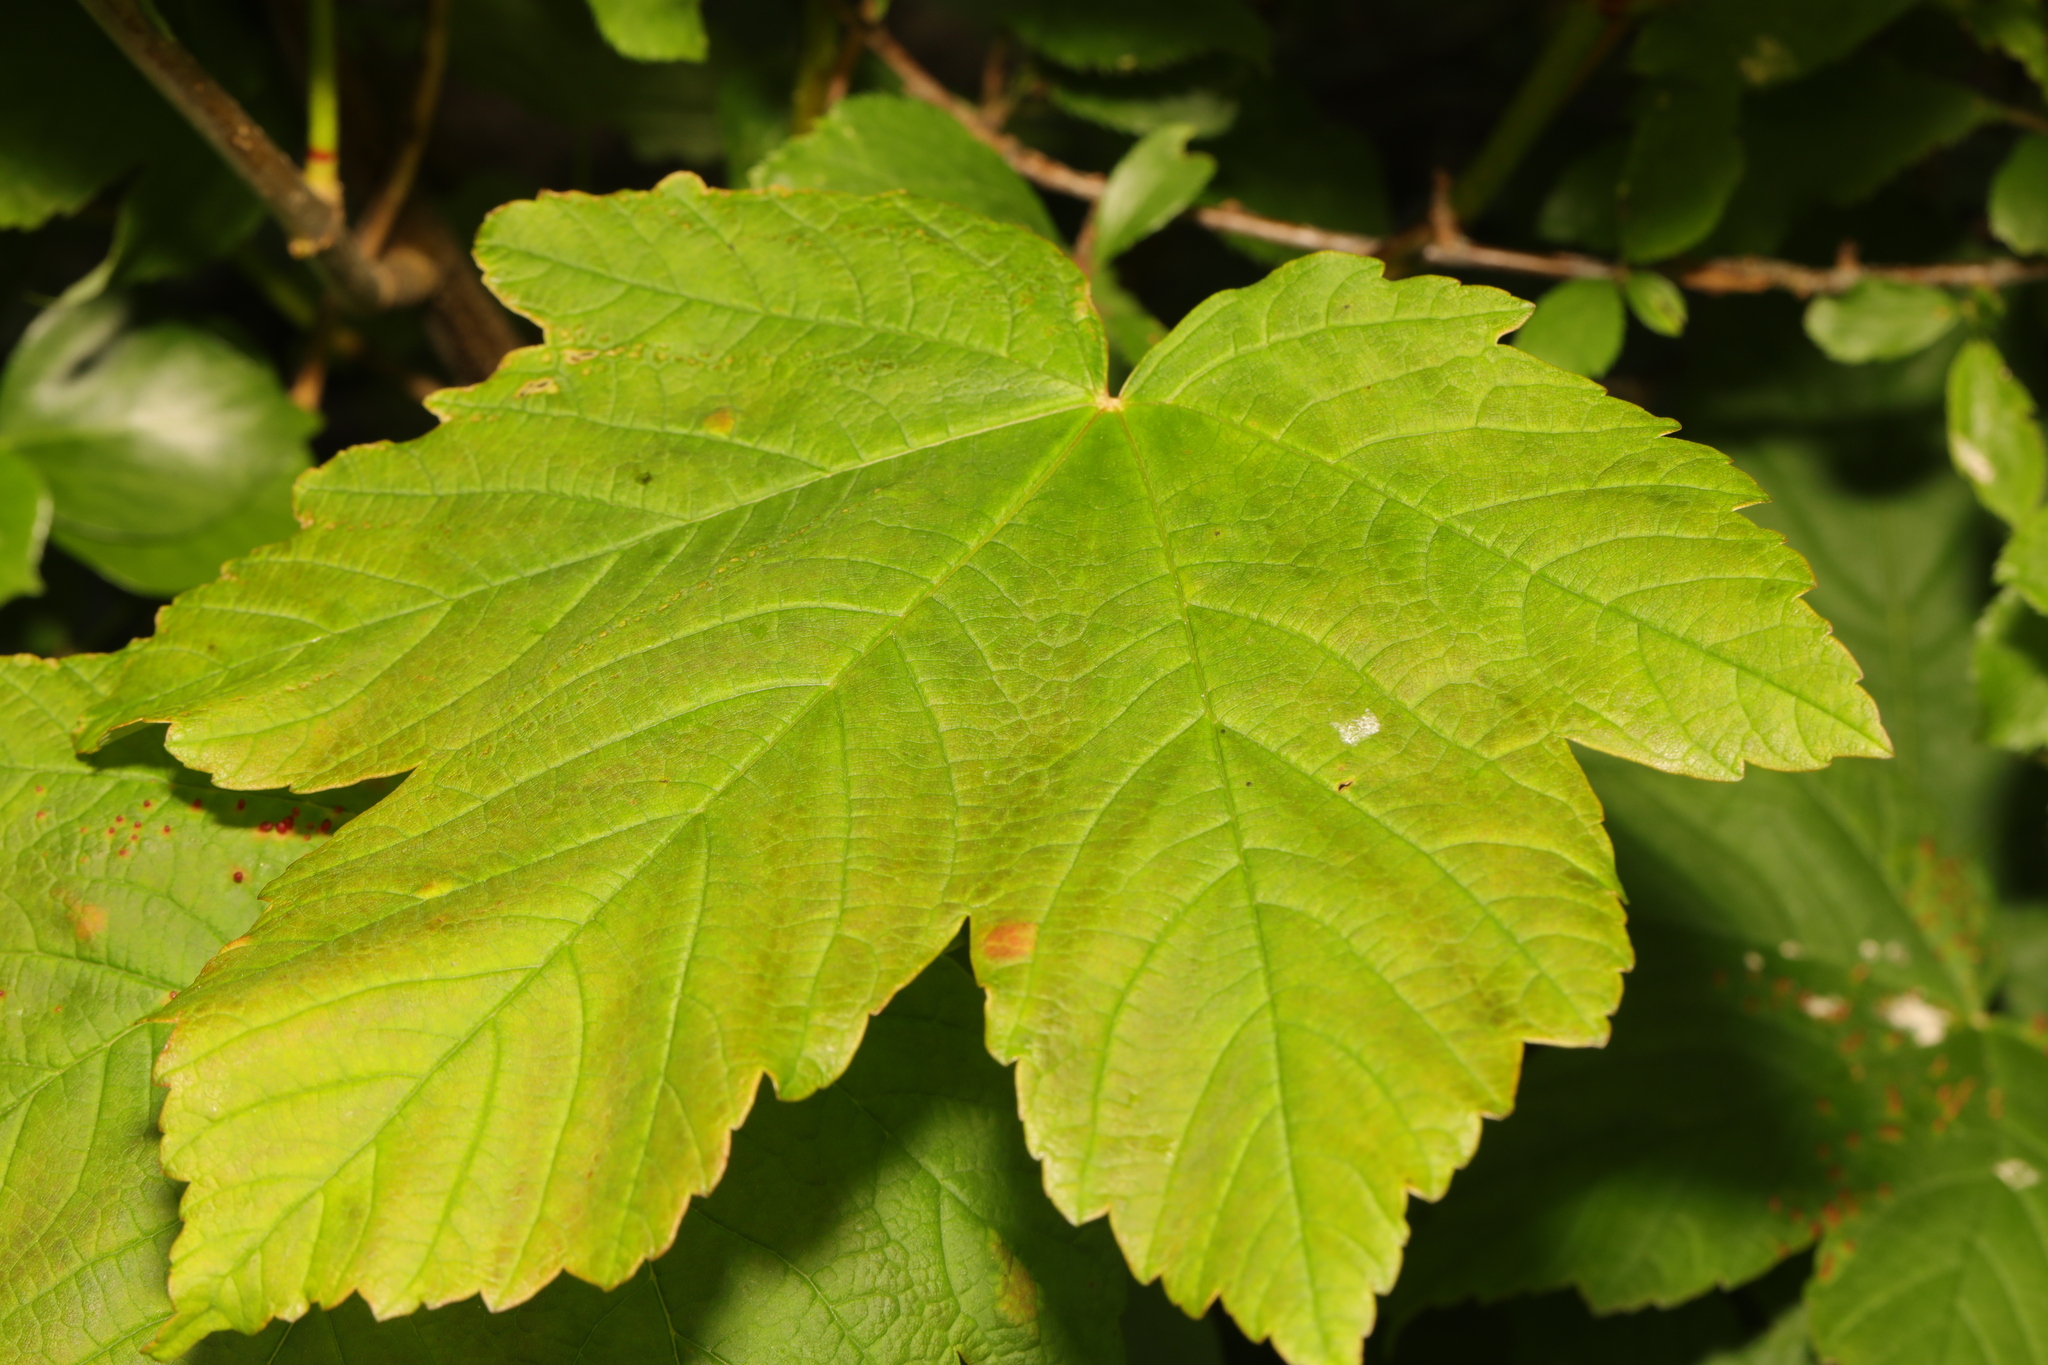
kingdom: Plantae
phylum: Tracheophyta
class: Magnoliopsida
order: Sapindales
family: Sapindaceae
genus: Acer
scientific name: Acer pseudoplatanus
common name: Sycamore
